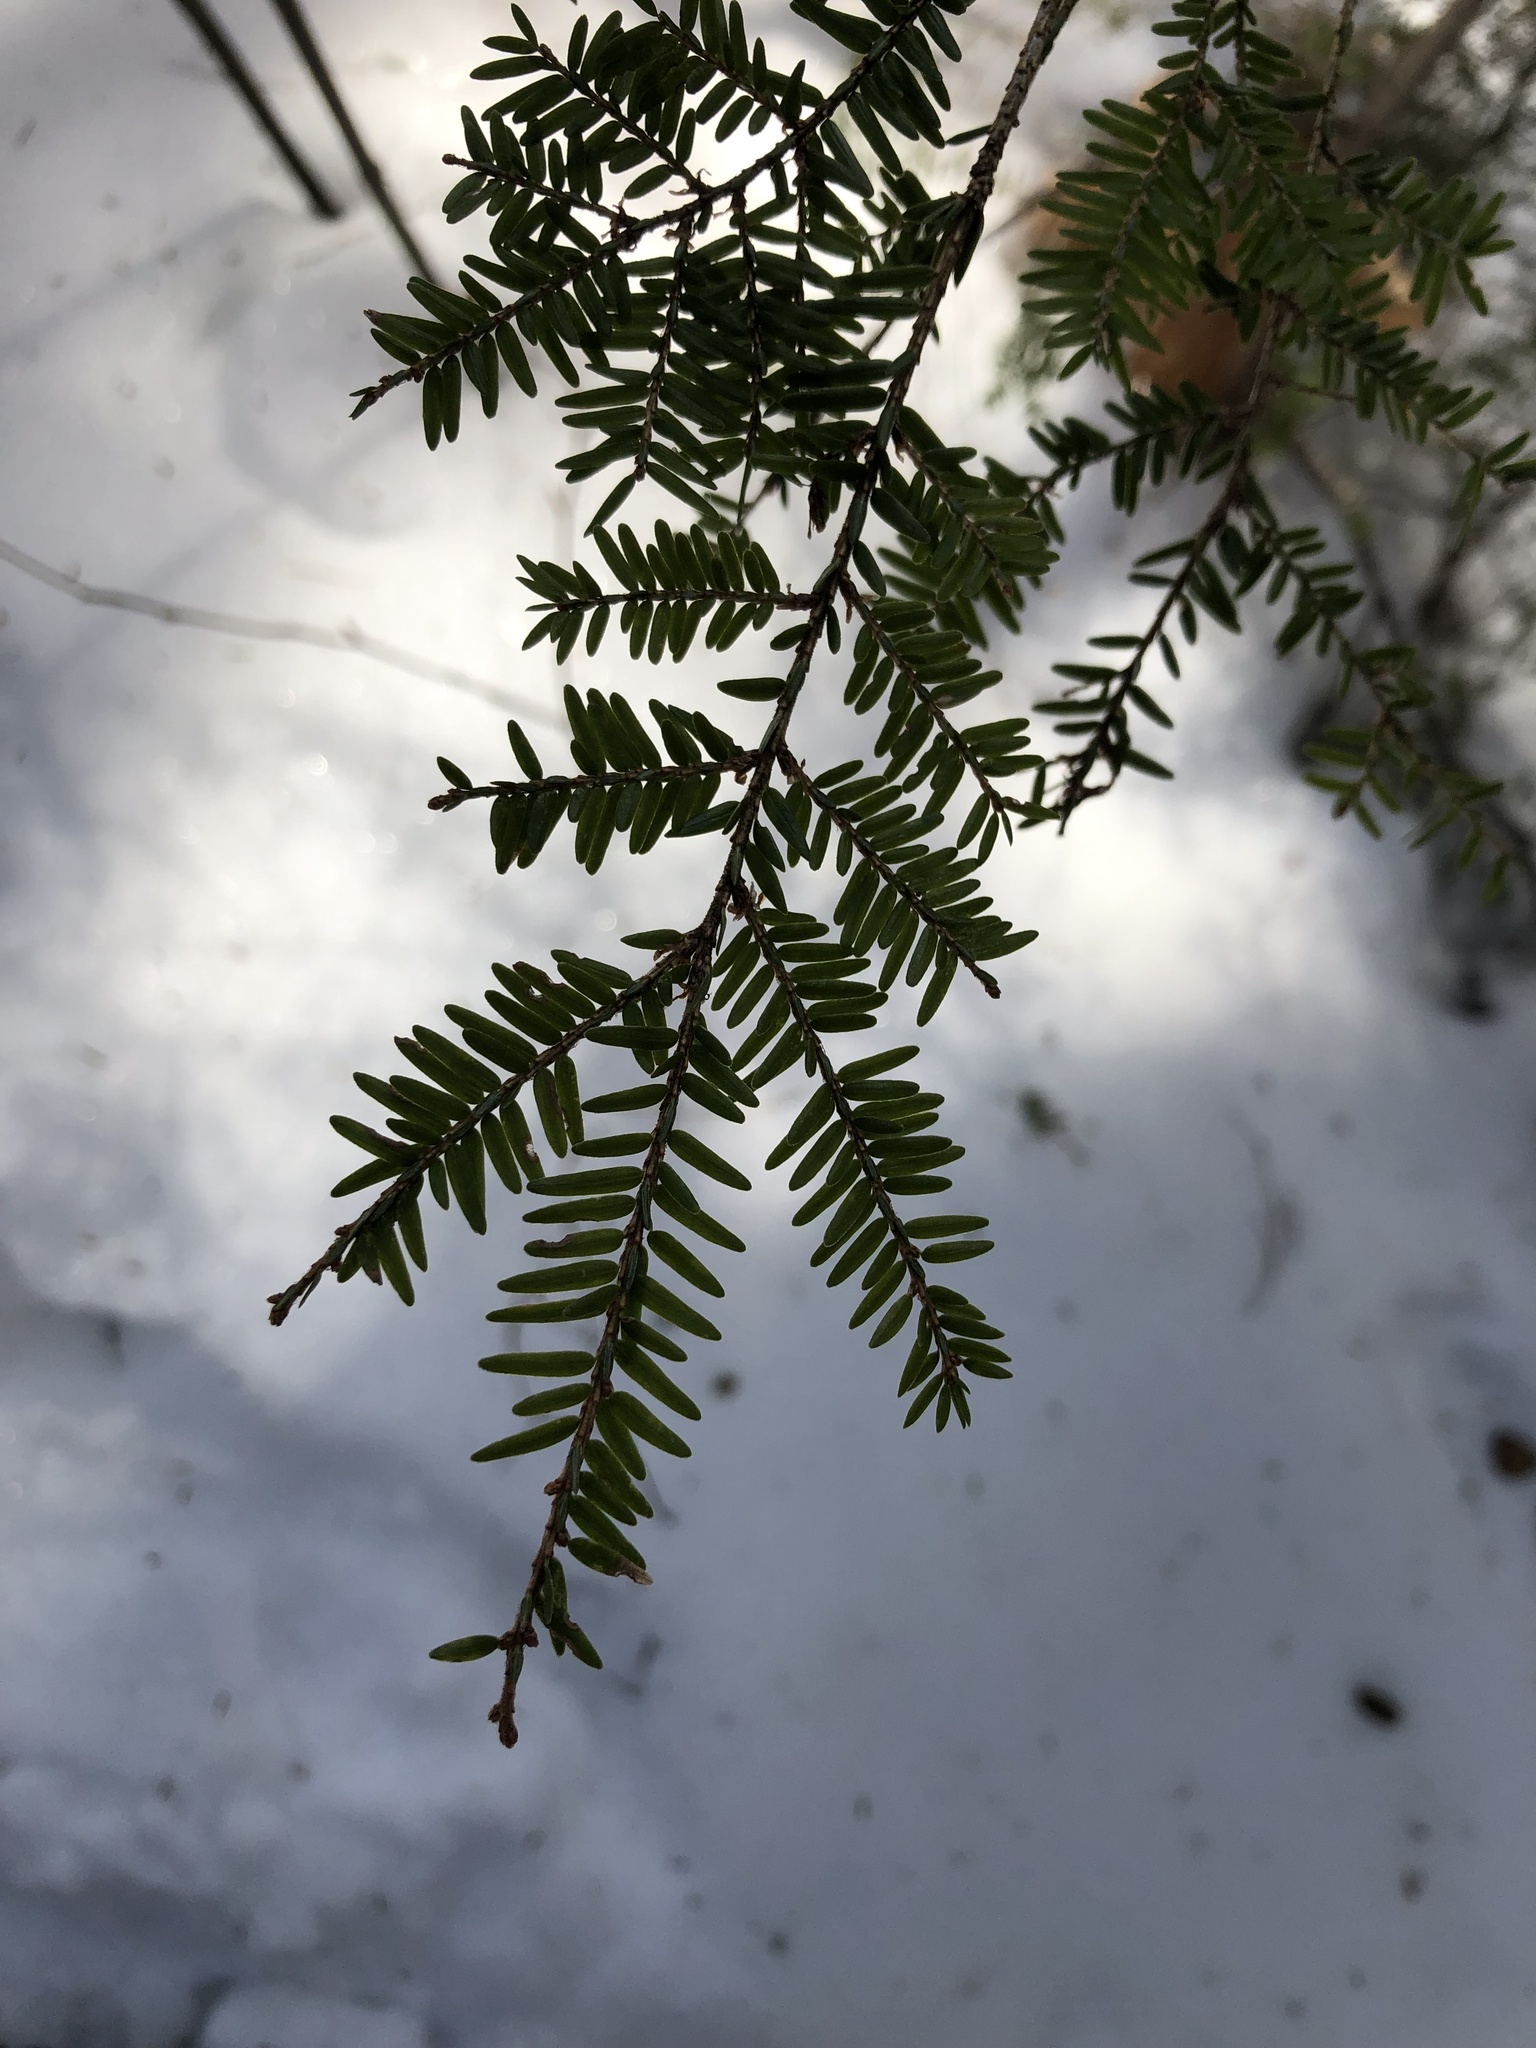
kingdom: Plantae
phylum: Tracheophyta
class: Pinopsida
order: Pinales
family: Pinaceae
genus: Tsuga
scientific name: Tsuga canadensis
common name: Eastern hemlock
